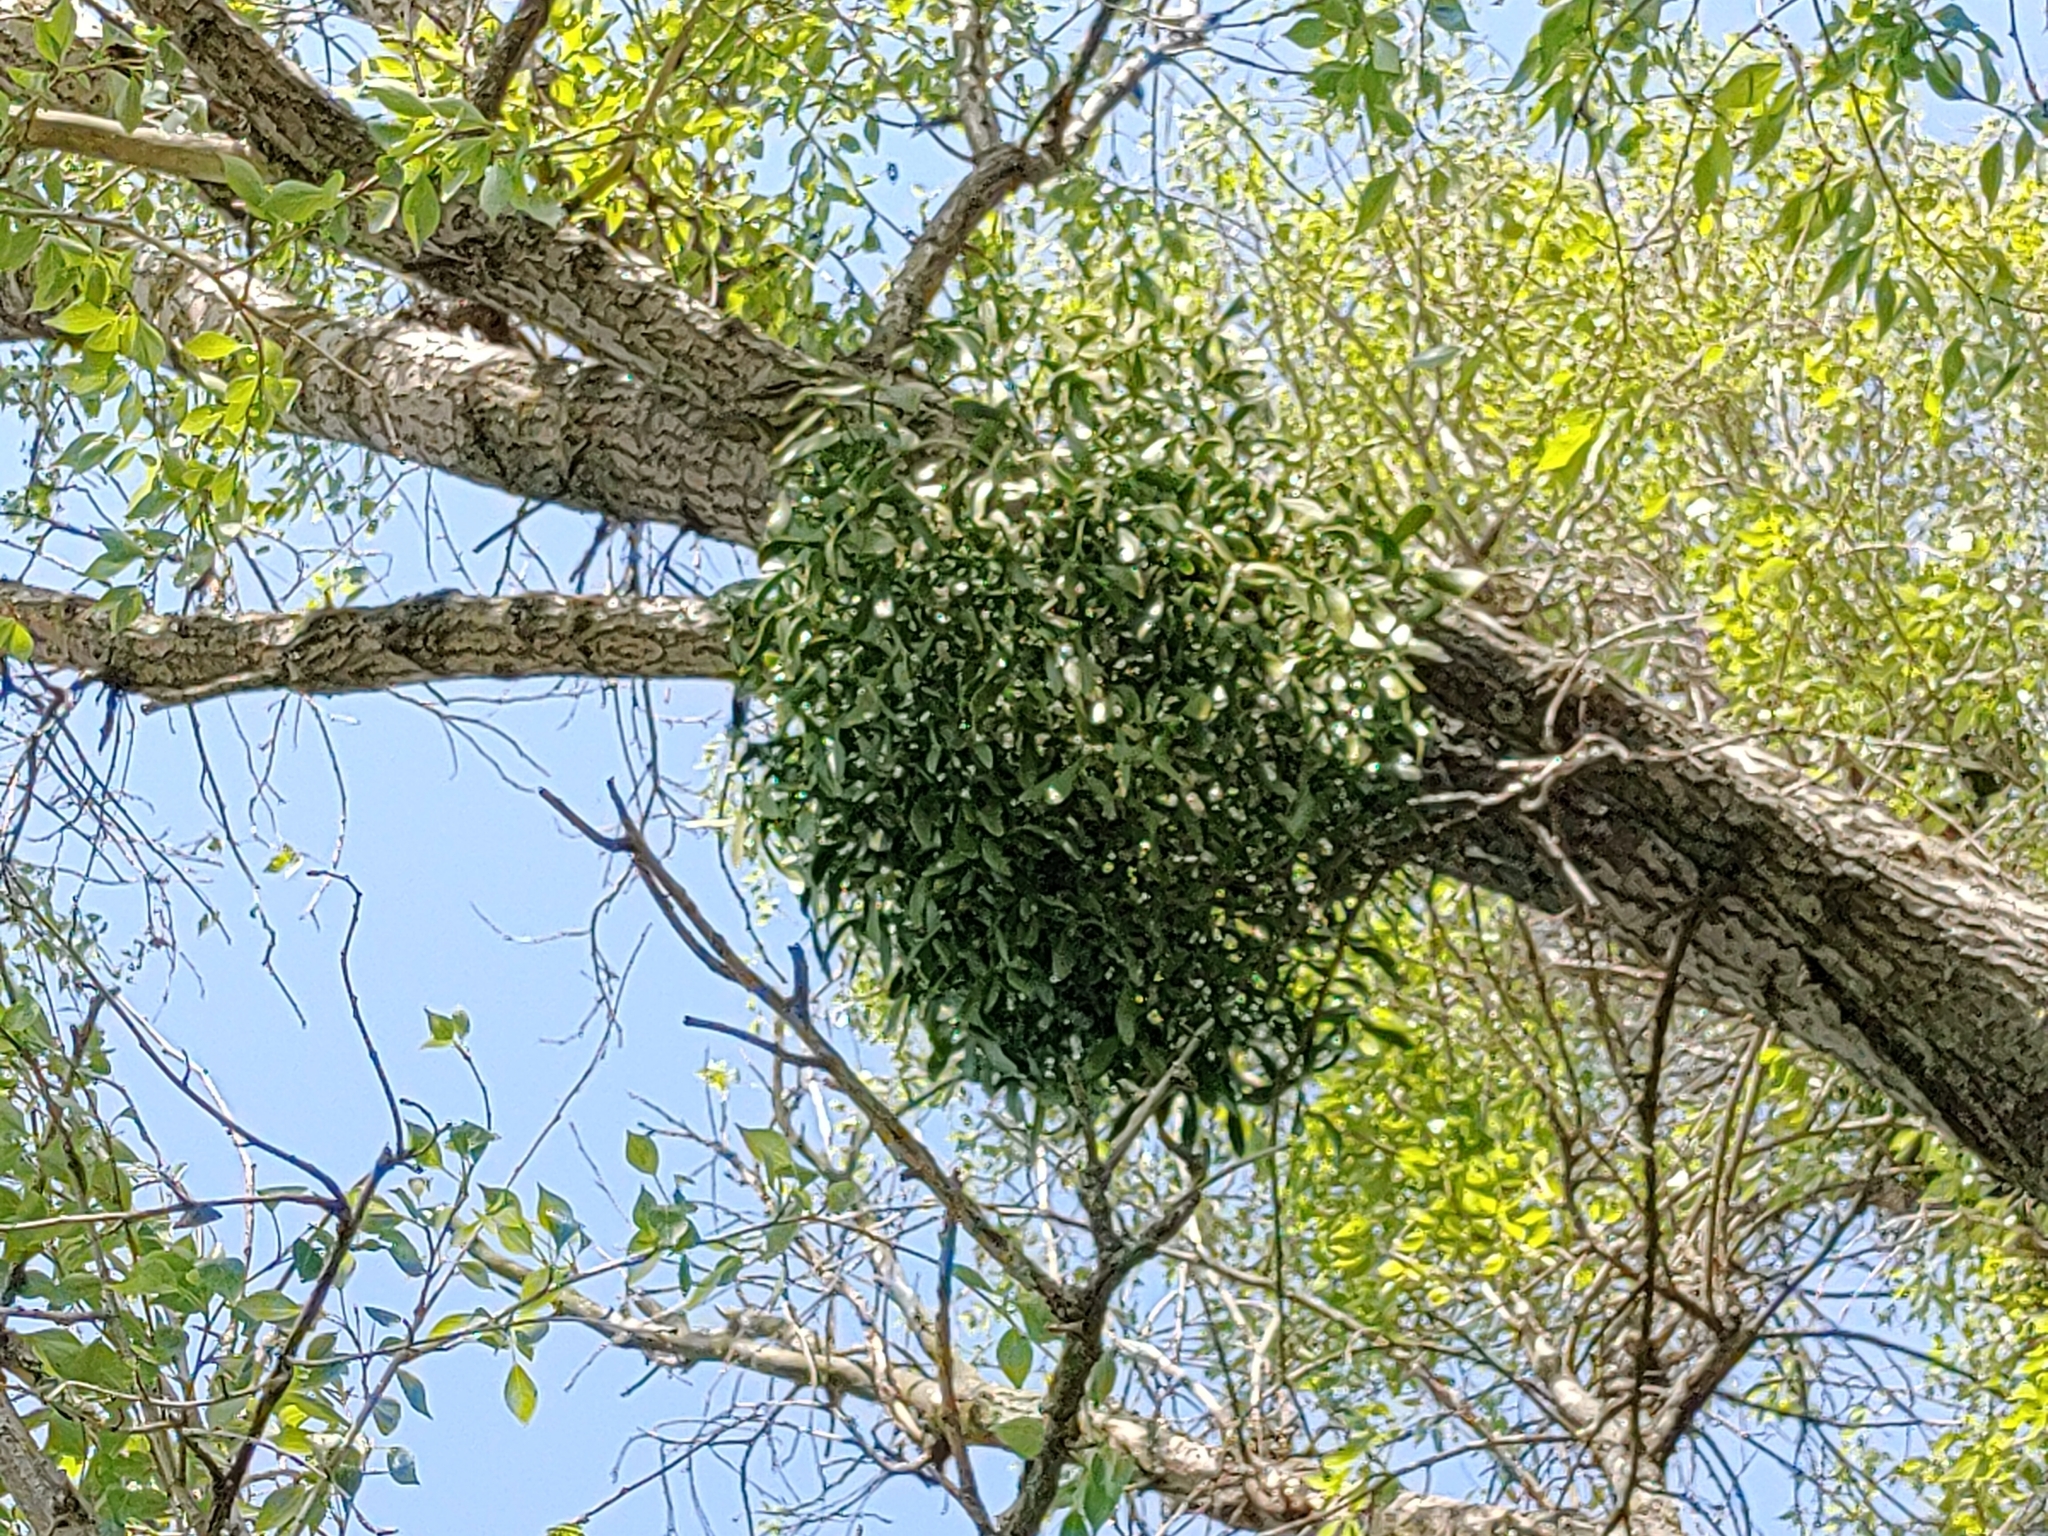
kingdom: Plantae
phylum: Tracheophyta
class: Magnoliopsida
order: Santalales
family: Viscaceae
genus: Viscum
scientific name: Viscum album
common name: Mistletoe
